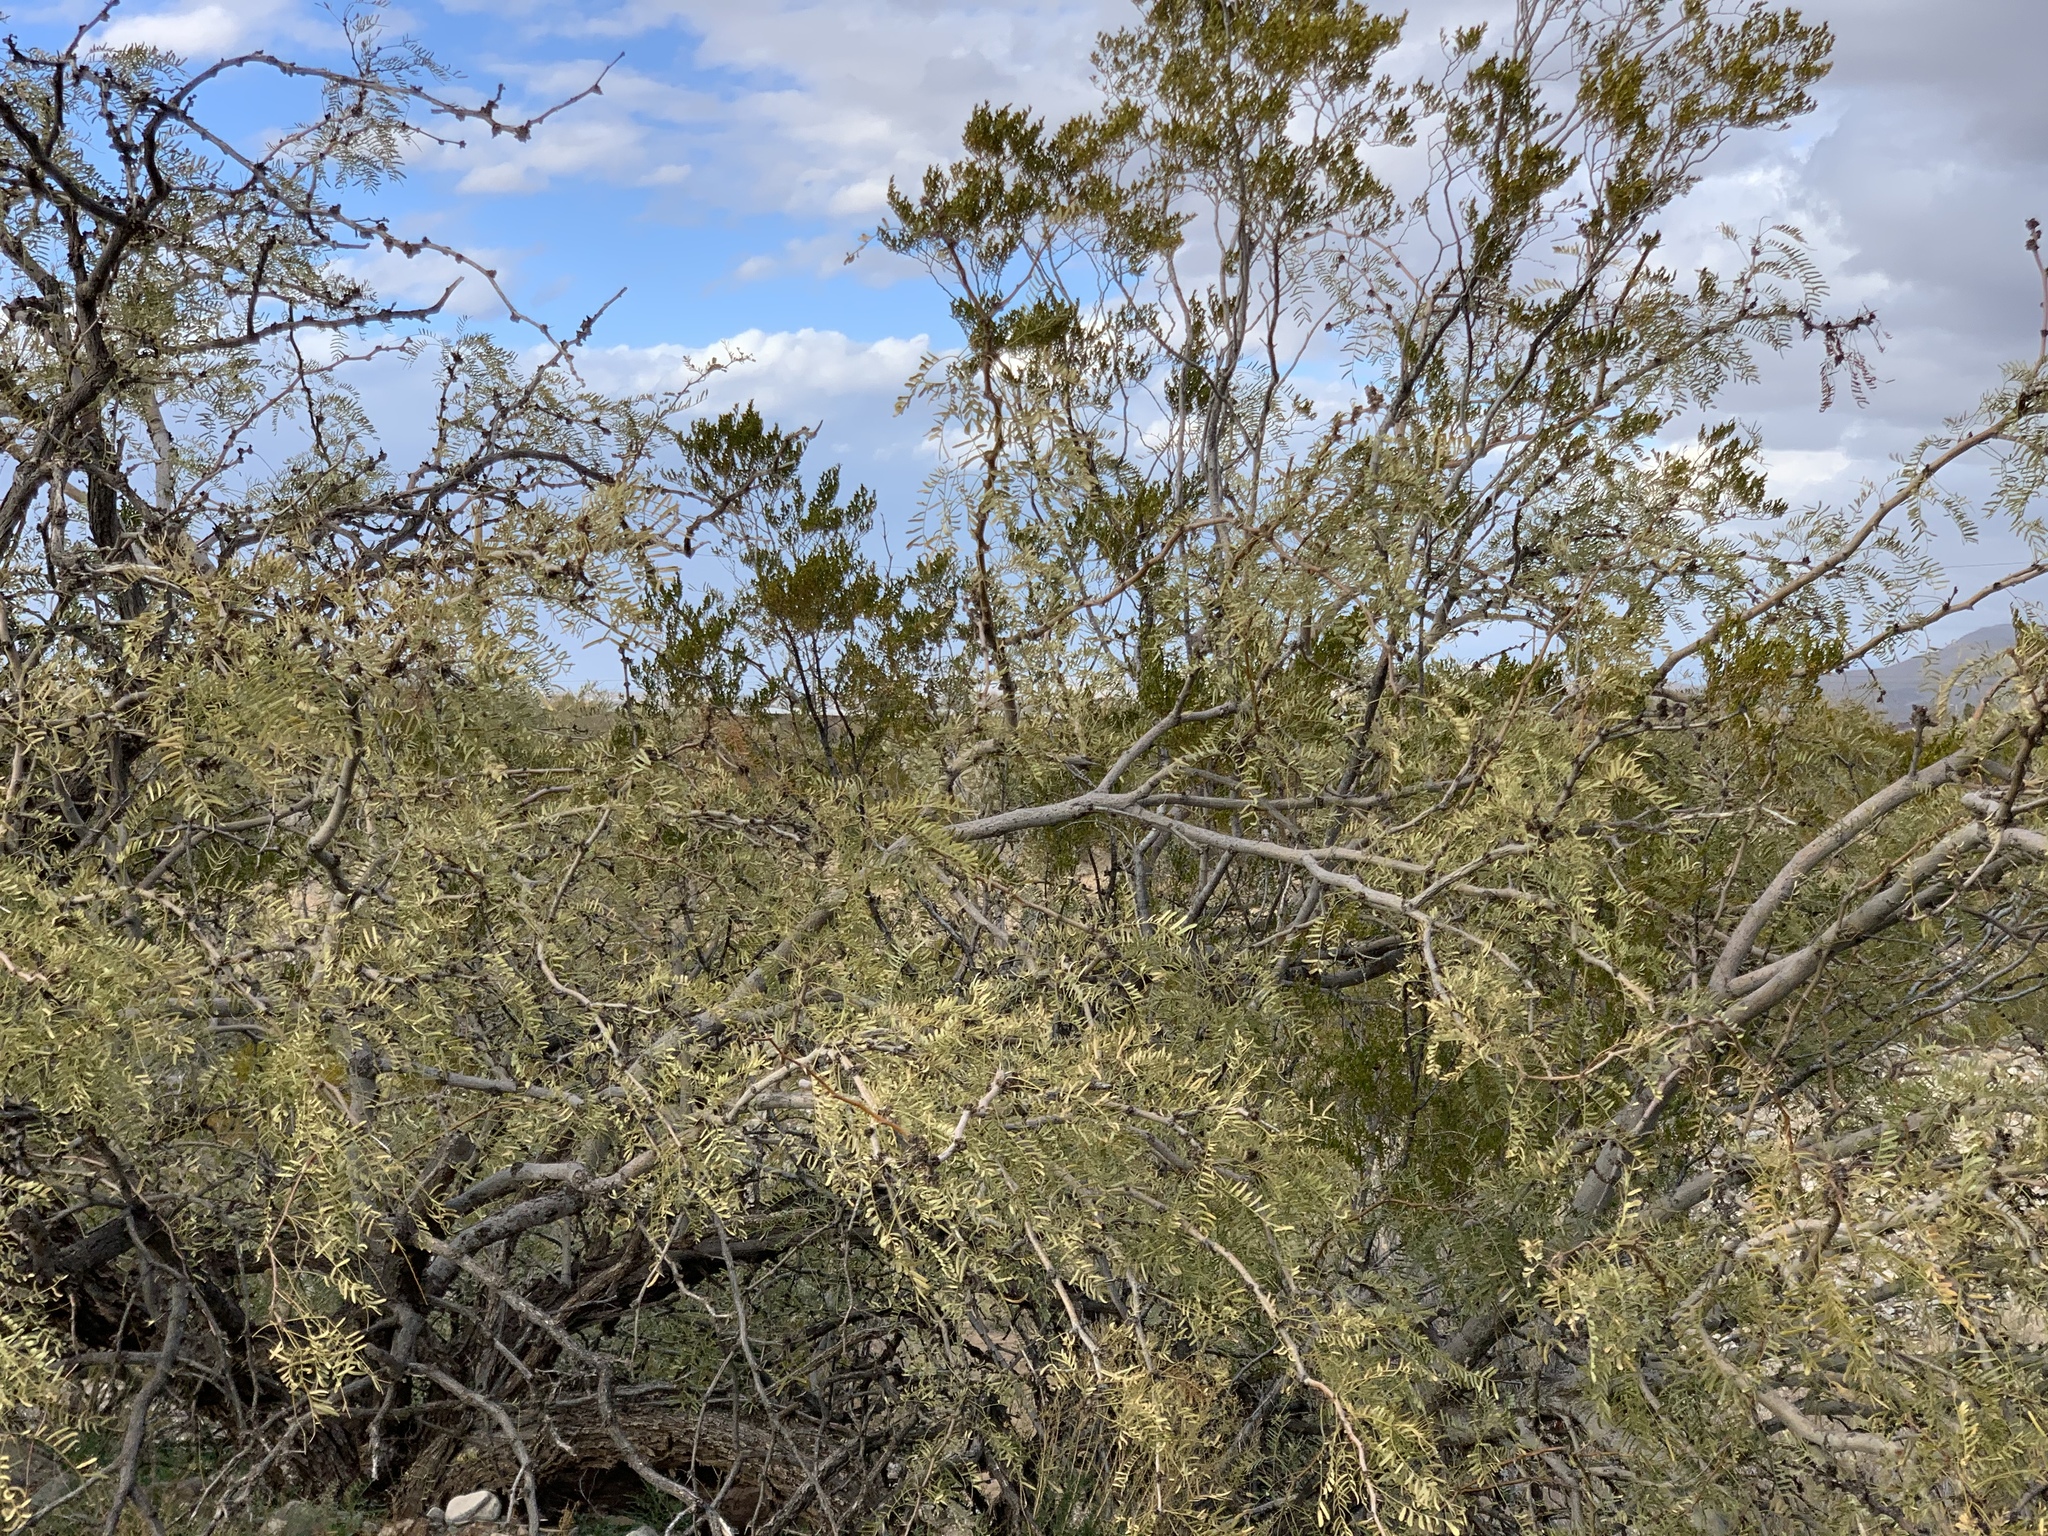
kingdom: Plantae
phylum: Tracheophyta
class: Magnoliopsida
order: Fabales
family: Fabaceae
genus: Prosopis
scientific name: Prosopis pubescens
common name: Screw-bean
